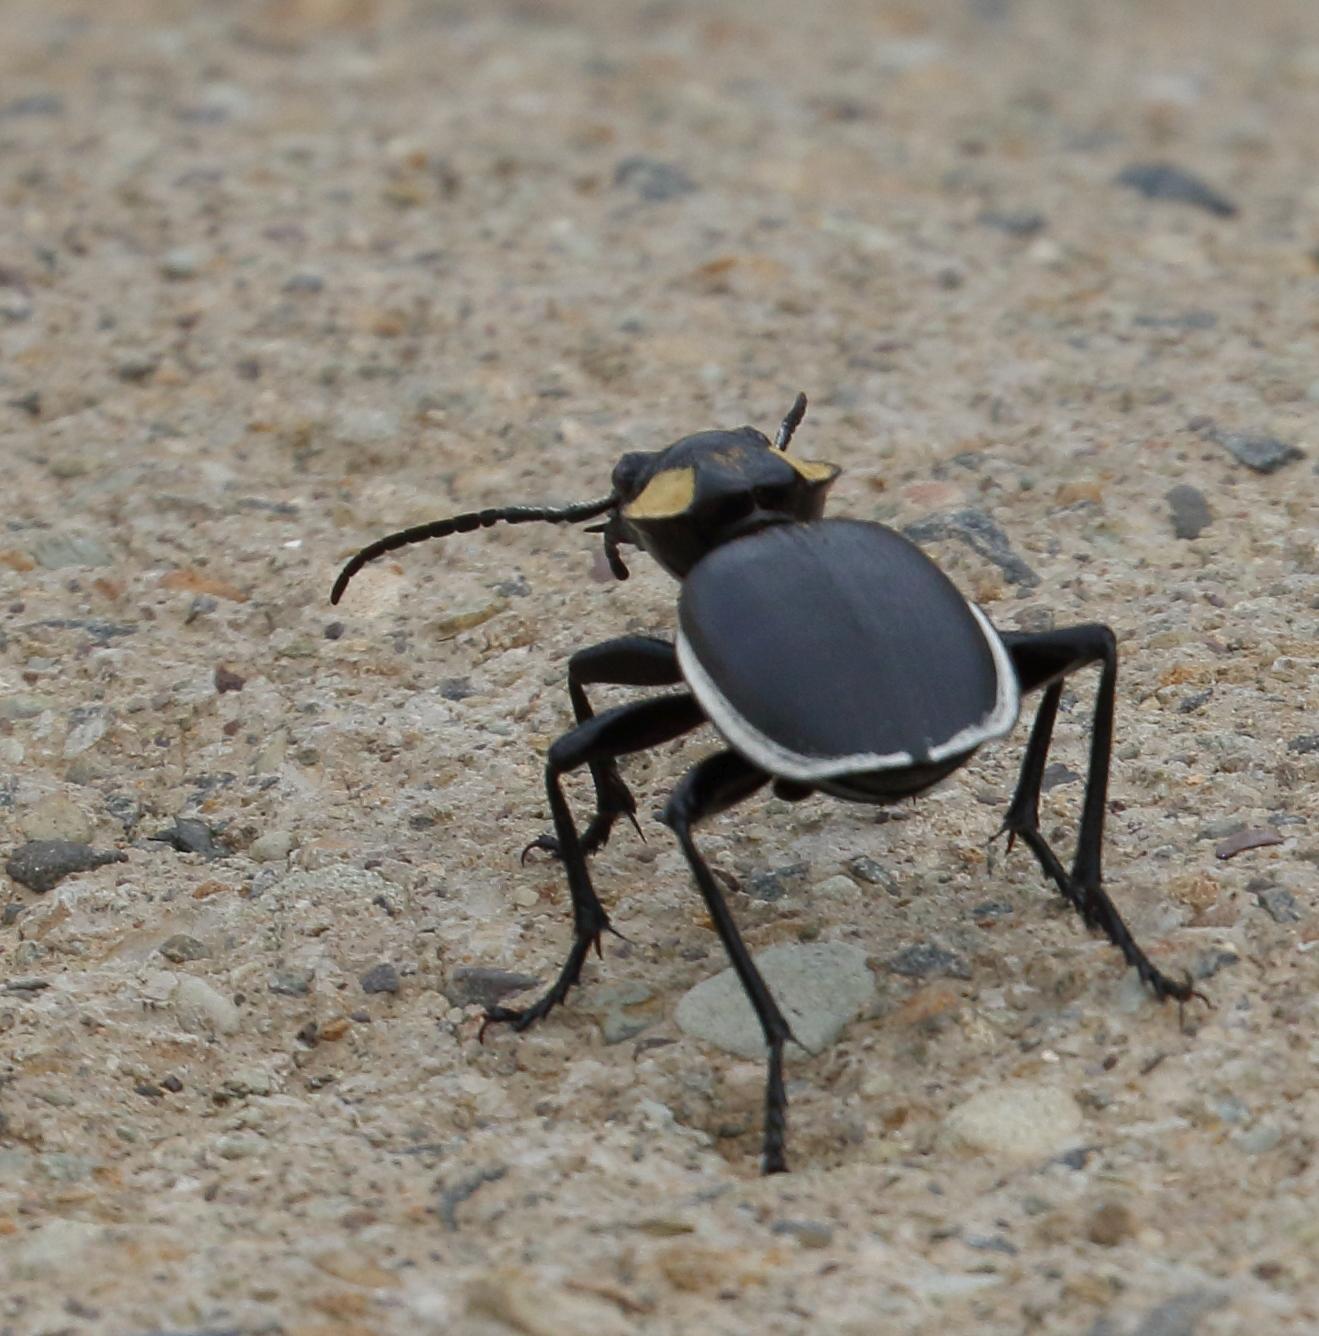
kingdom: Animalia
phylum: Arthropoda
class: Insecta
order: Coleoptera
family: Carabidae
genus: Anthia
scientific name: Anthia thoracica
